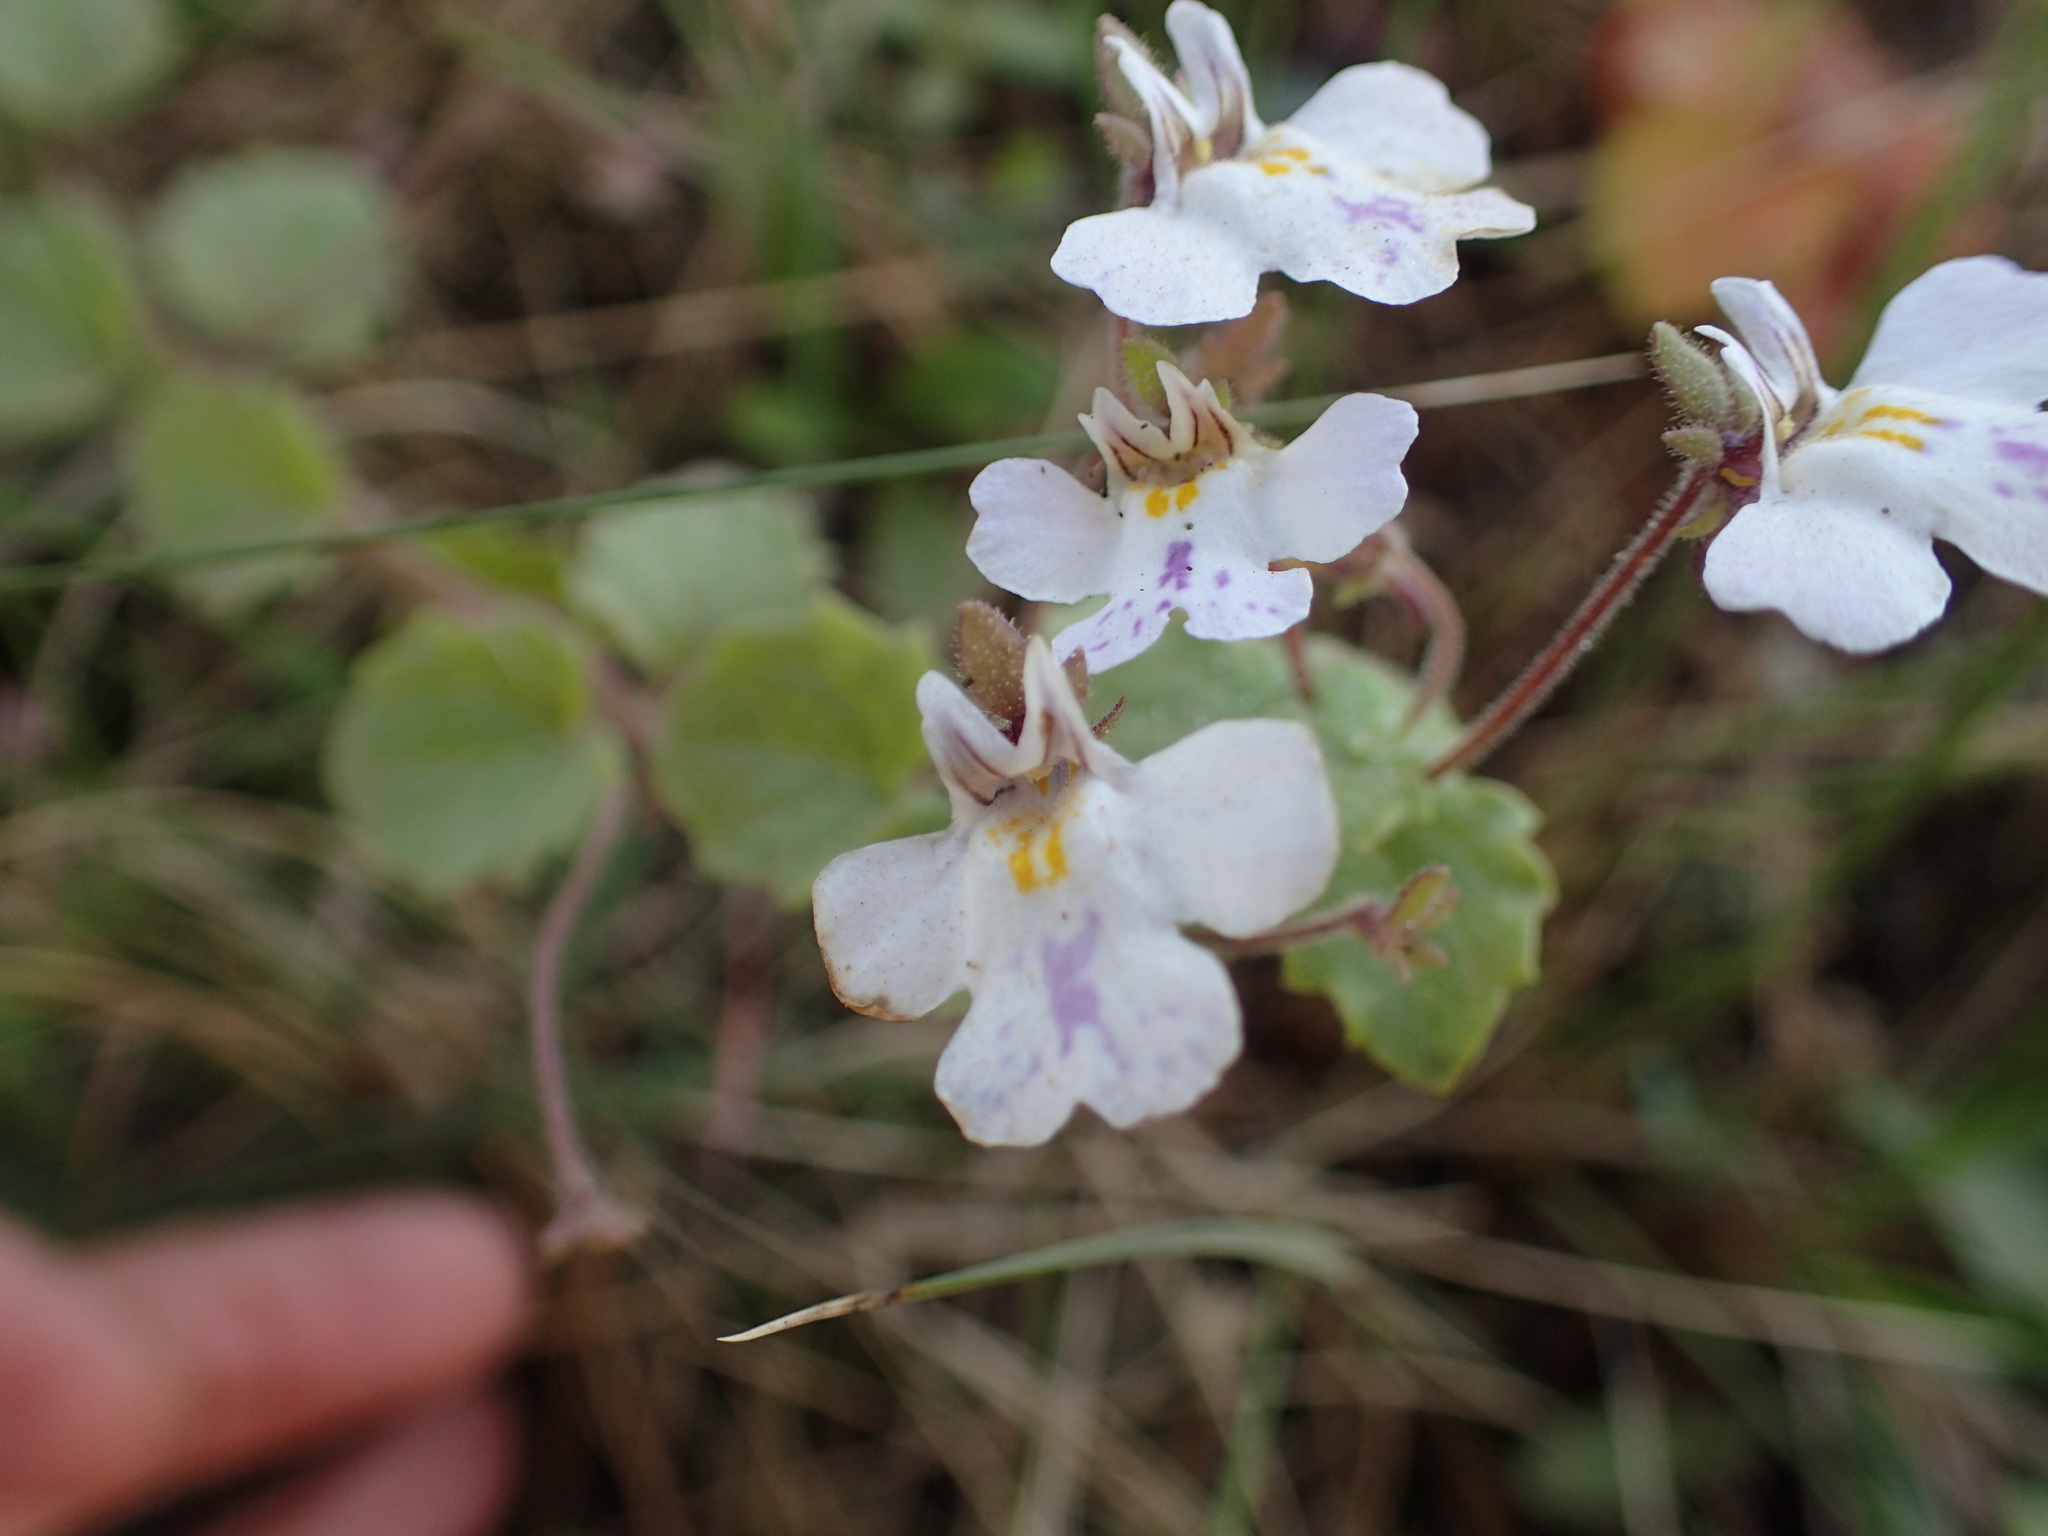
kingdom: Plantae
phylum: Tracheophyta
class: Magnoliopsida
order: Lamiales
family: Scrophulariaceae
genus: Diclis
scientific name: Diclis reptans
